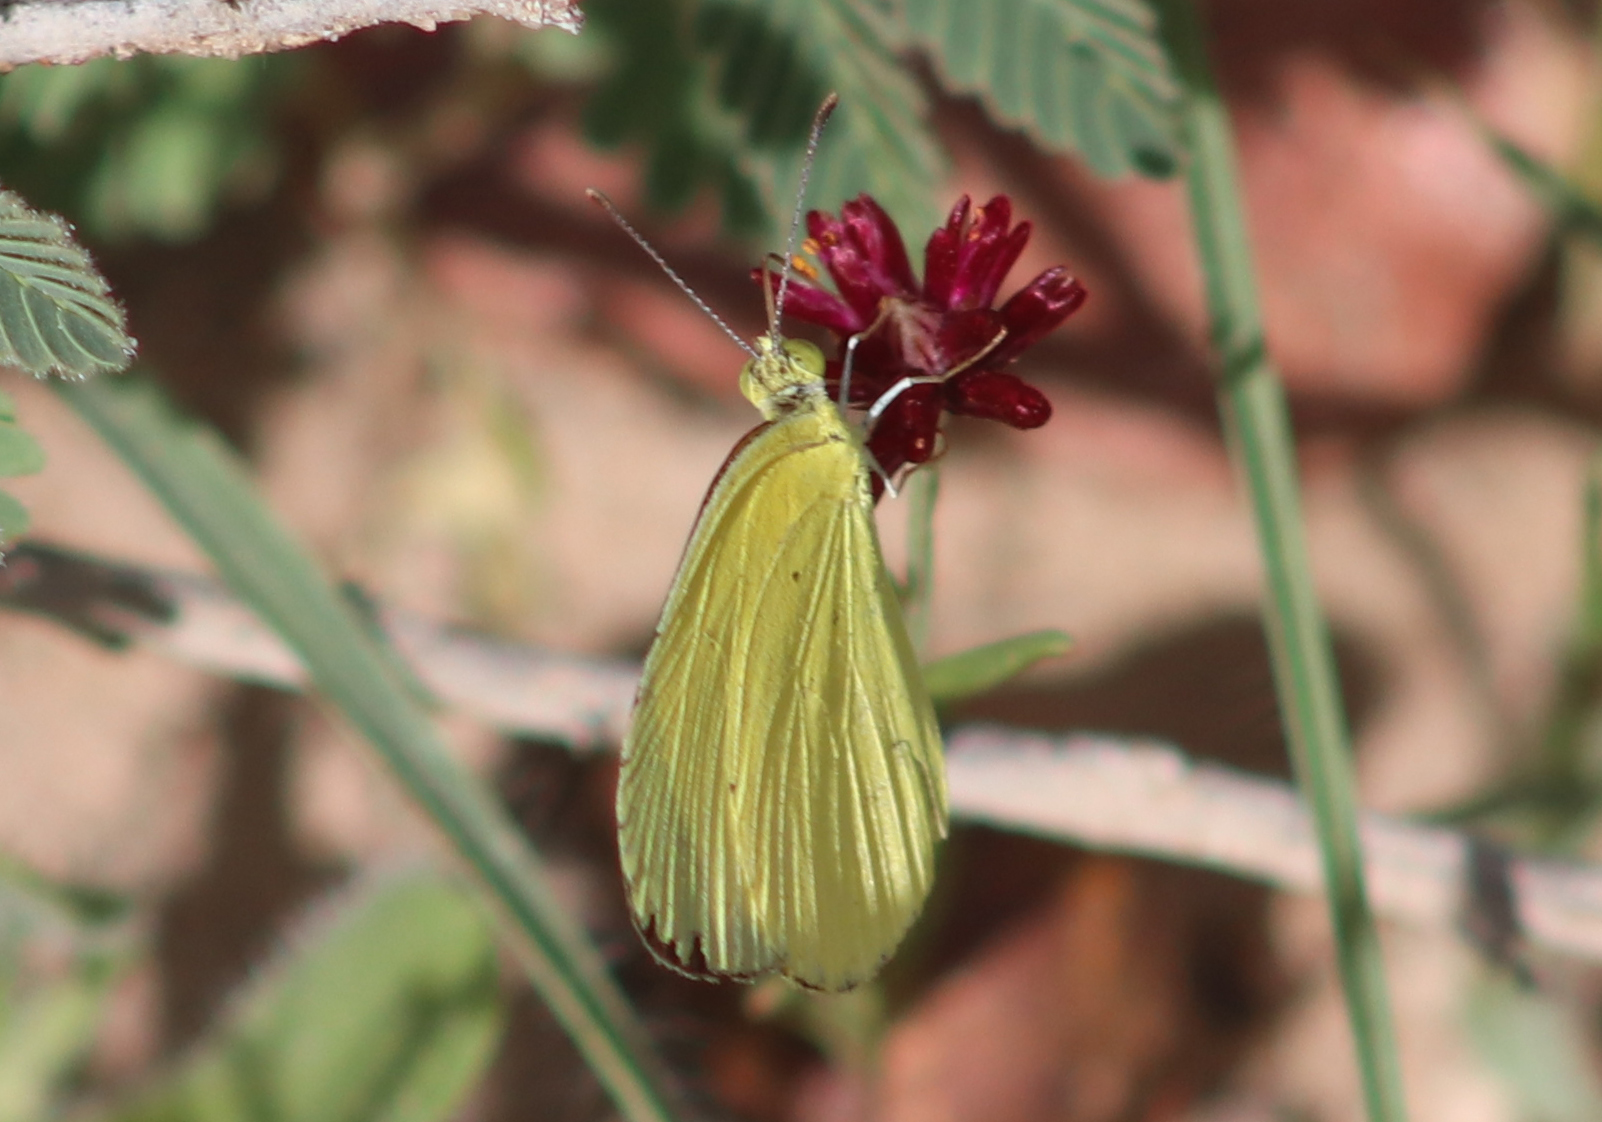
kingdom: Animalia
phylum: Arthropoda
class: Insecta
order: Lepidoptera
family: Pieridae
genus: Eurema
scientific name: Eurema smilax
